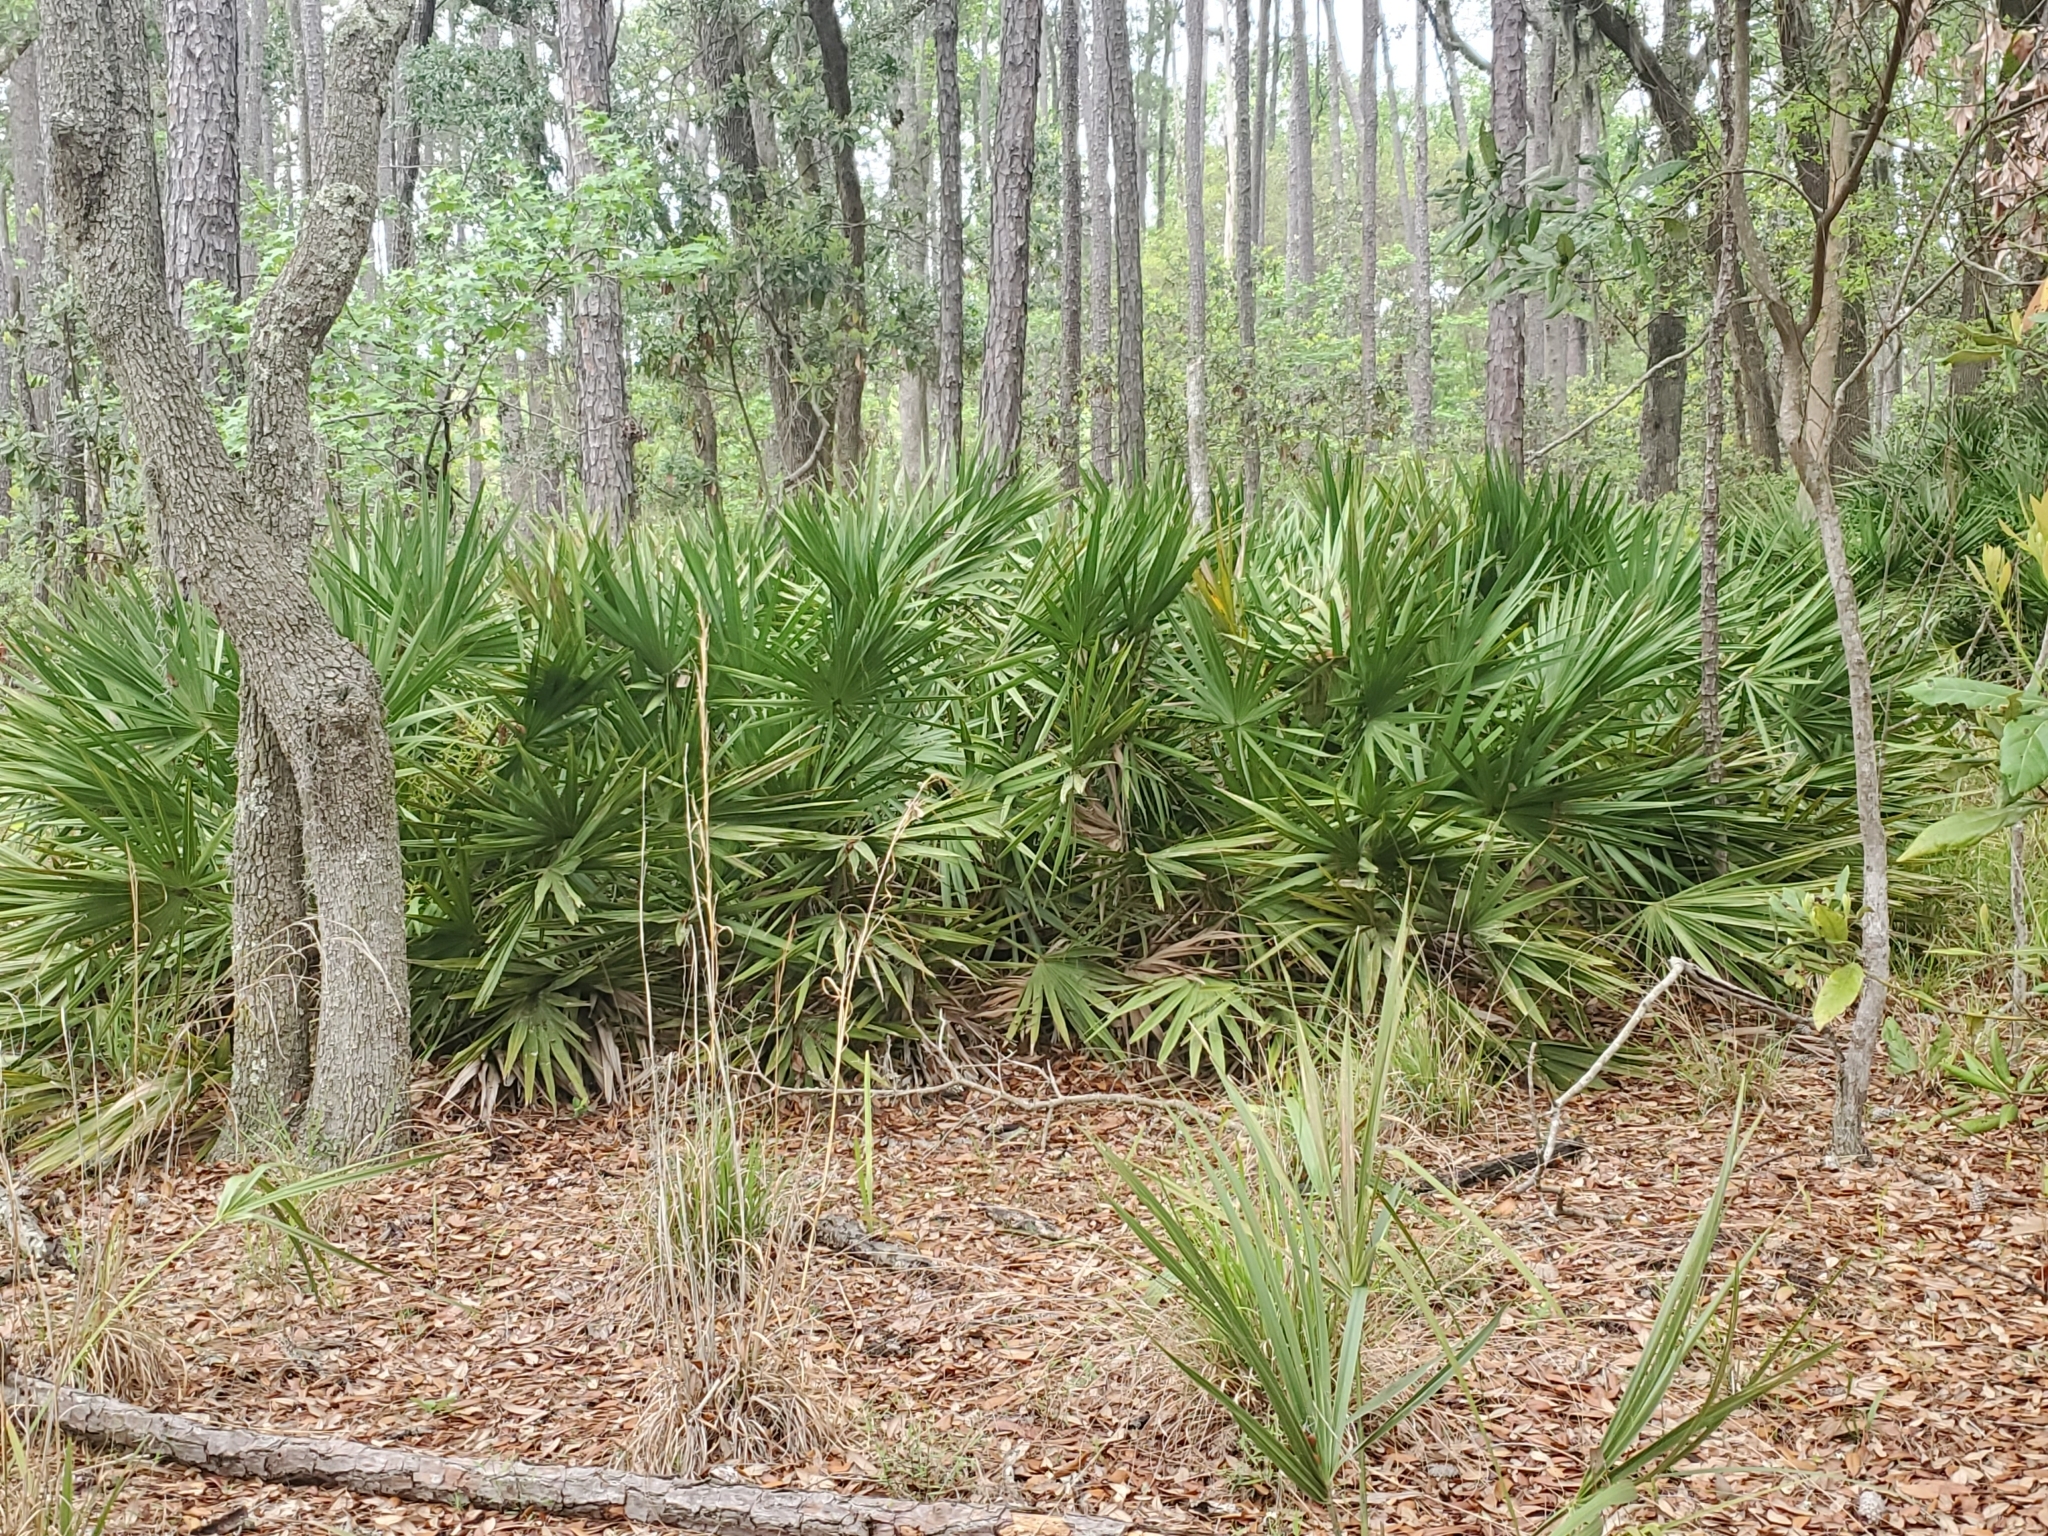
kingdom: Plantae
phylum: Tracheophyta
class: Liliopsida
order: Arecales
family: Arecaceae
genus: Serenoa
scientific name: Serenoa repens
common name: Saw-palmetto
